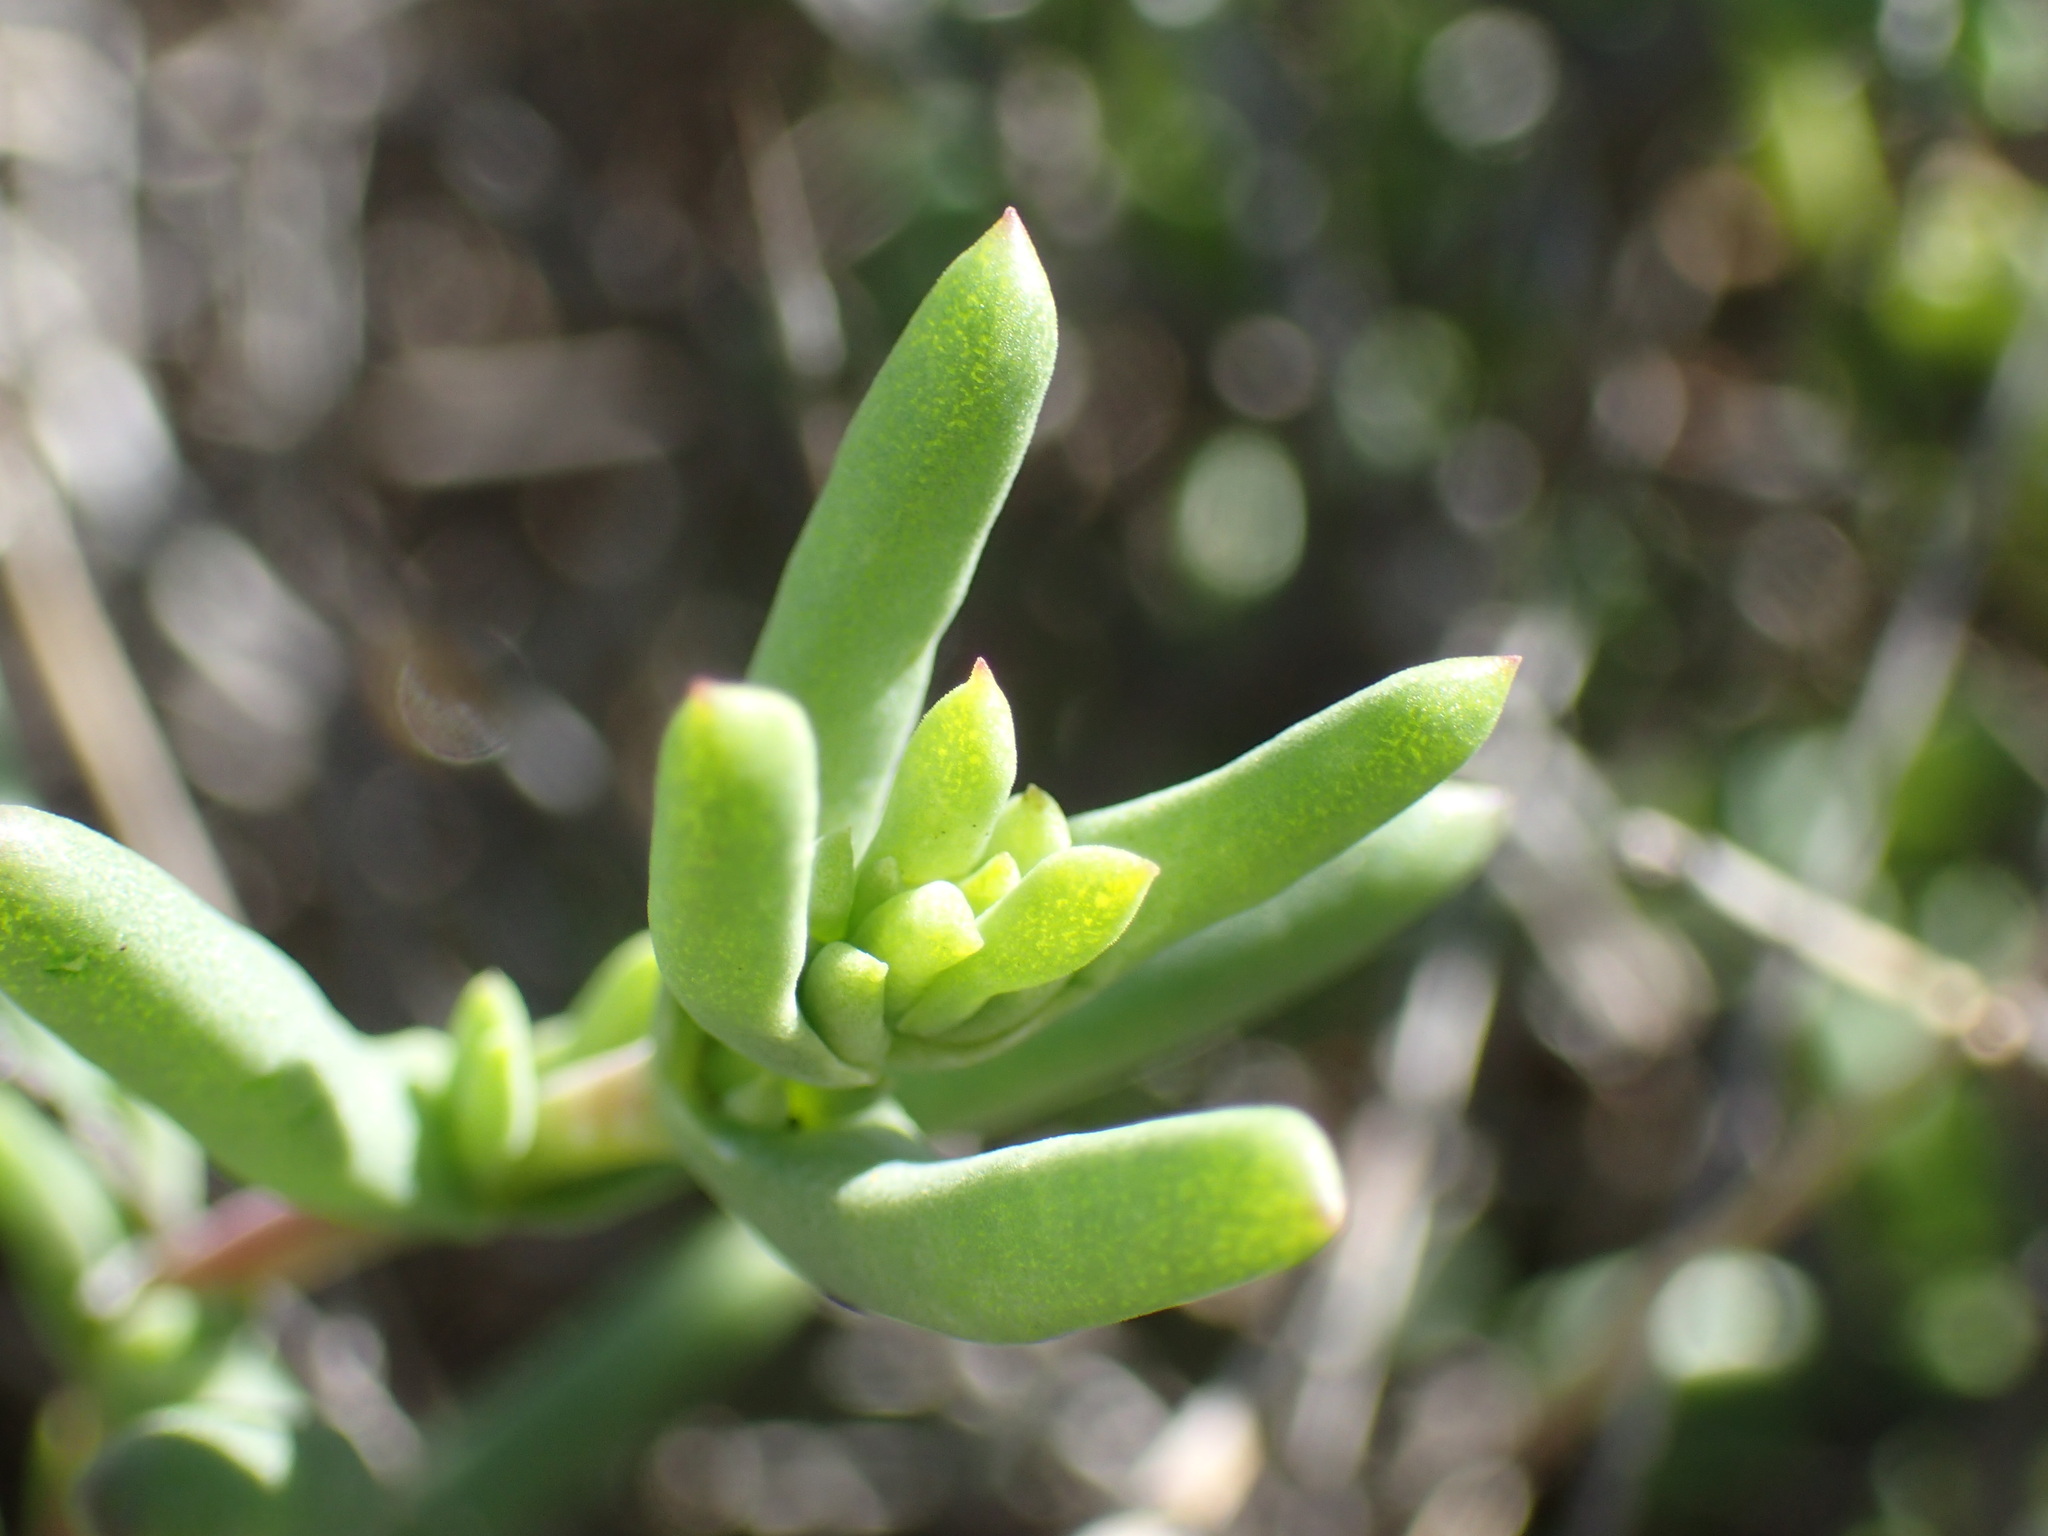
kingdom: Plantae
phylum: Tracheophyta
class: Magnoliopsida
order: Caryophyllales
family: Aizoaceae
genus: Mestoklema
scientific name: Mestoklema tuberosum
